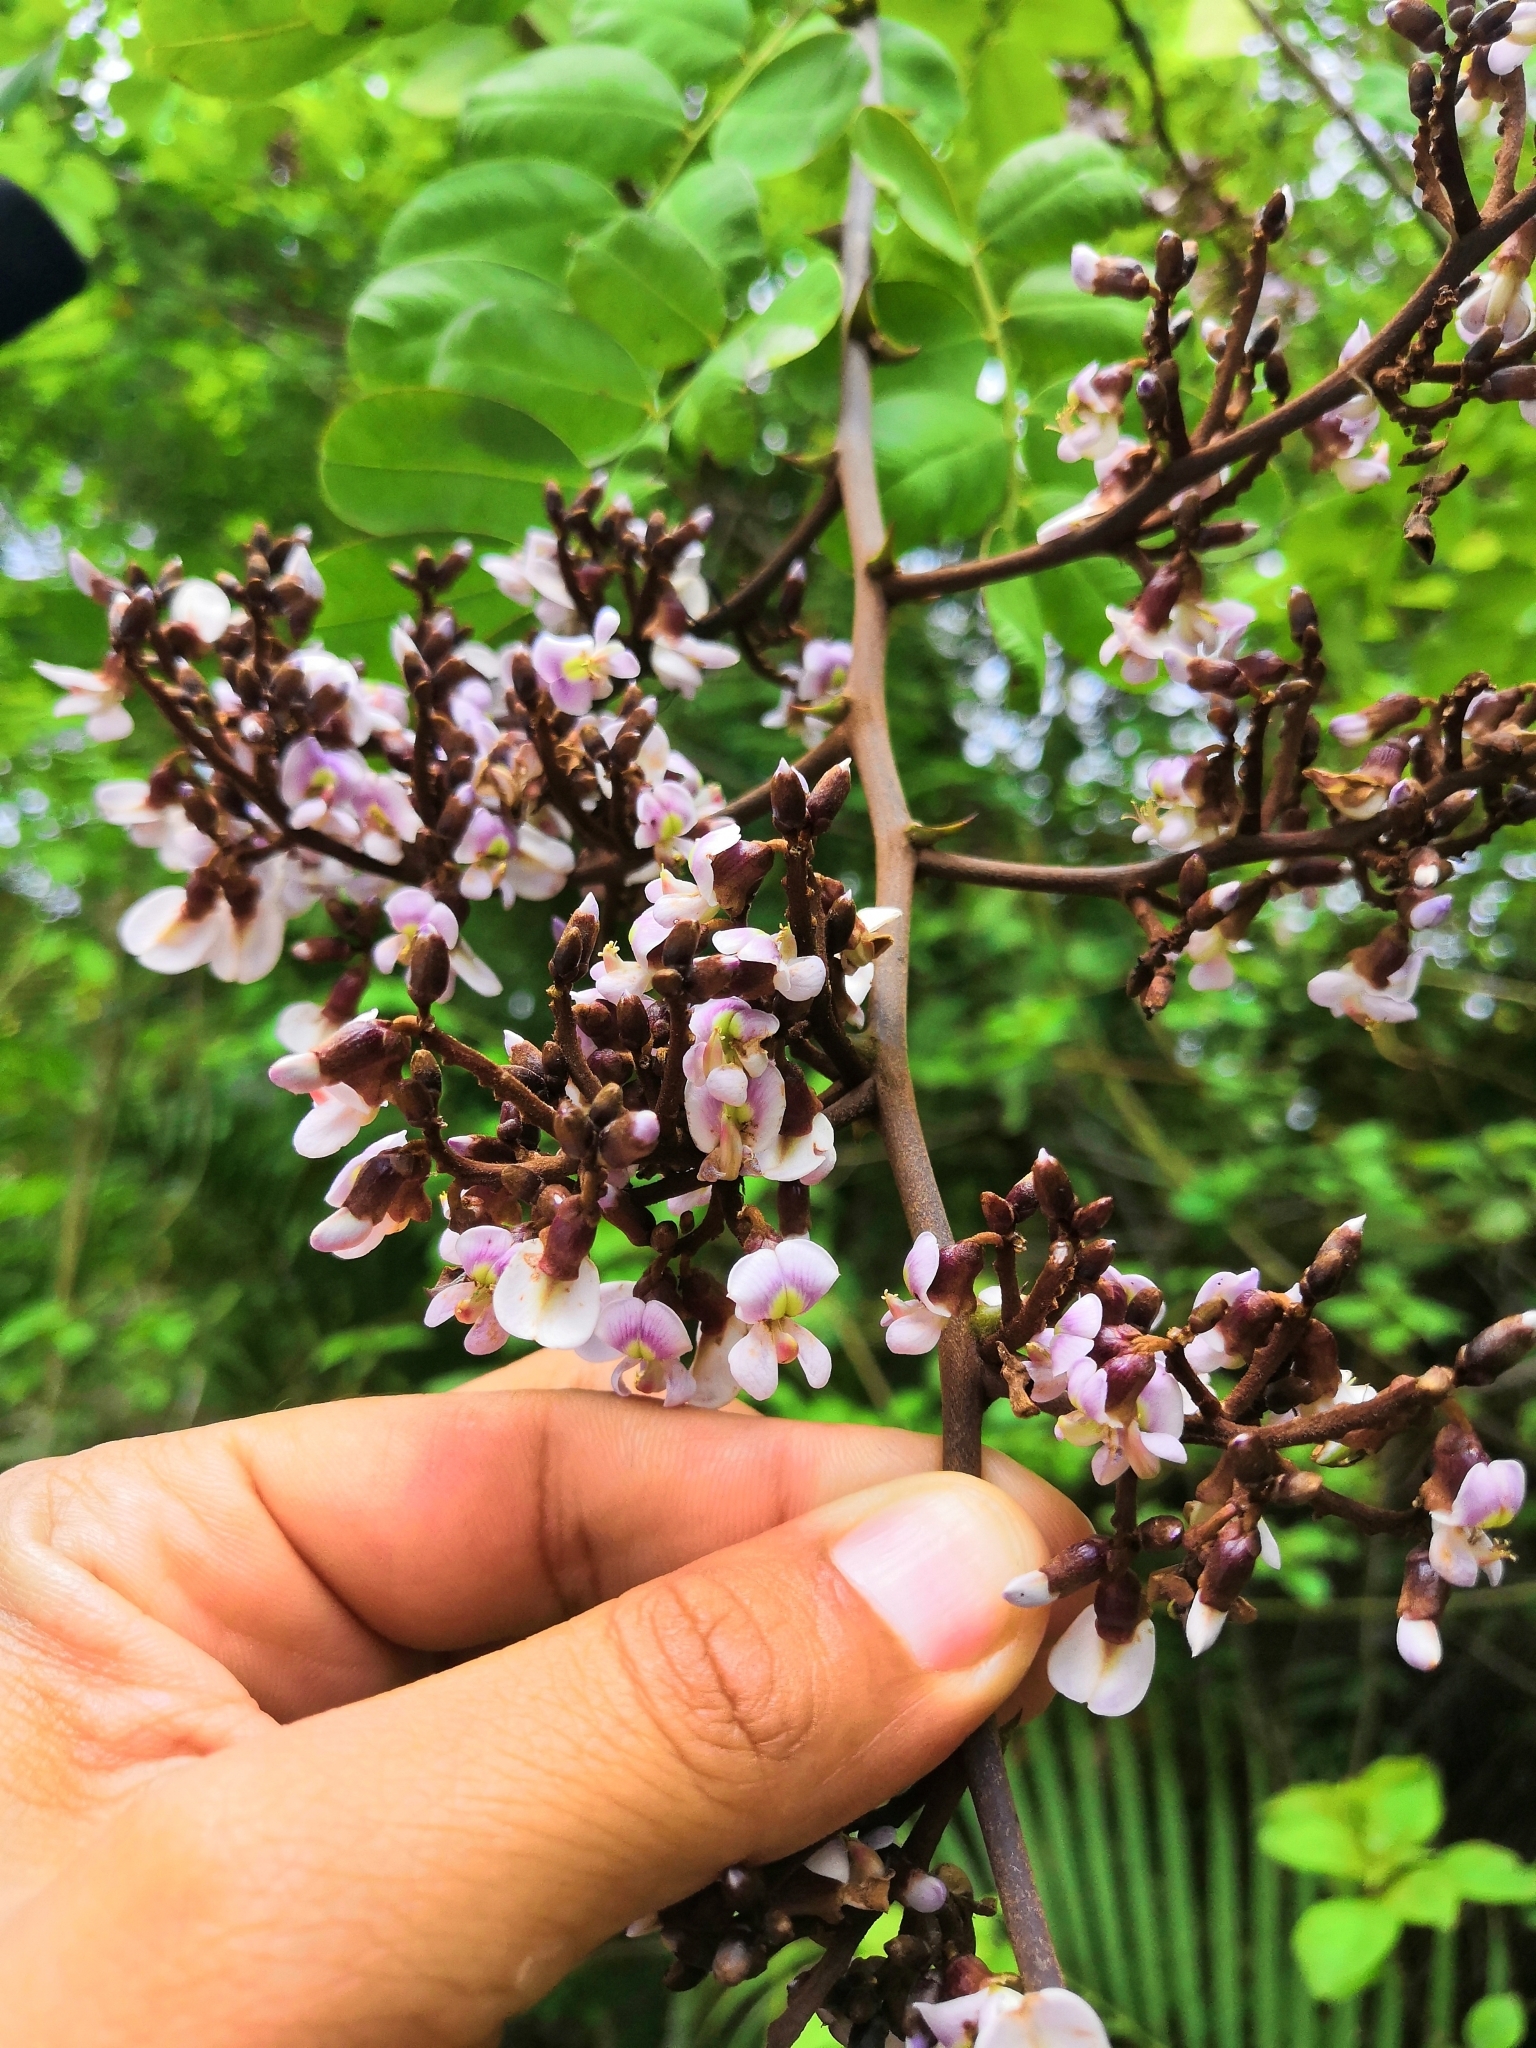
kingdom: Plantae
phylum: Tracheophyta
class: Magnoliopsida
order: Fabales
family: Fabaceae
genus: Machaerium
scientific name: Machaerium salvadorense
